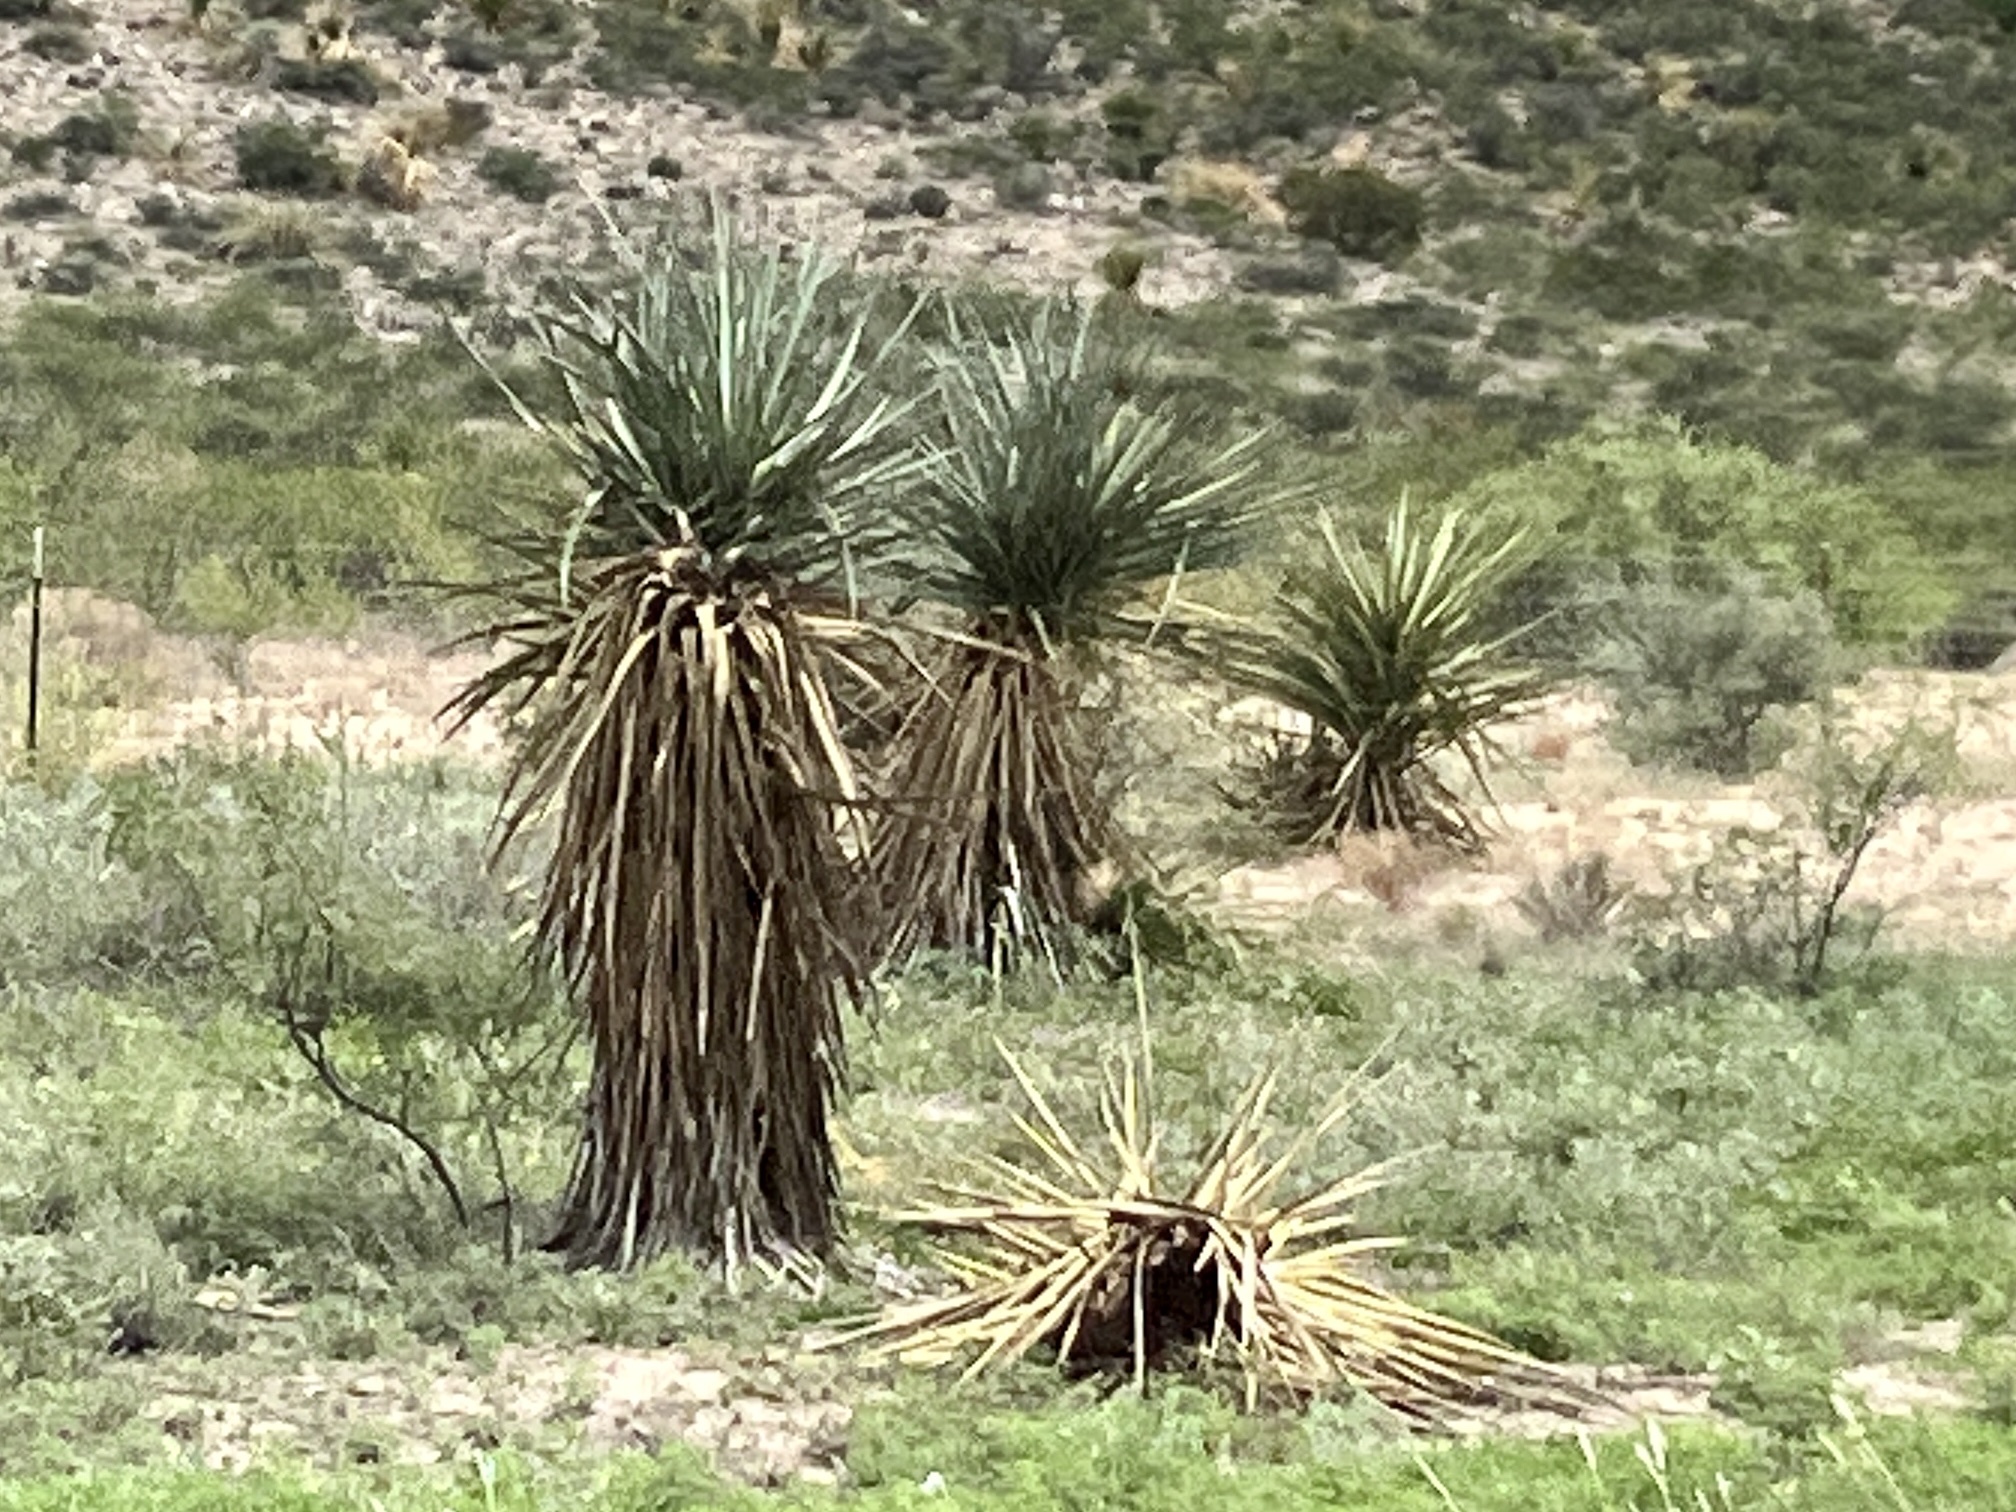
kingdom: Plantae
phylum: Tracheophyta
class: Liliopsida
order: Asparagales
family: Asparagaceae
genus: Yucca
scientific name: Yucca treculiana
